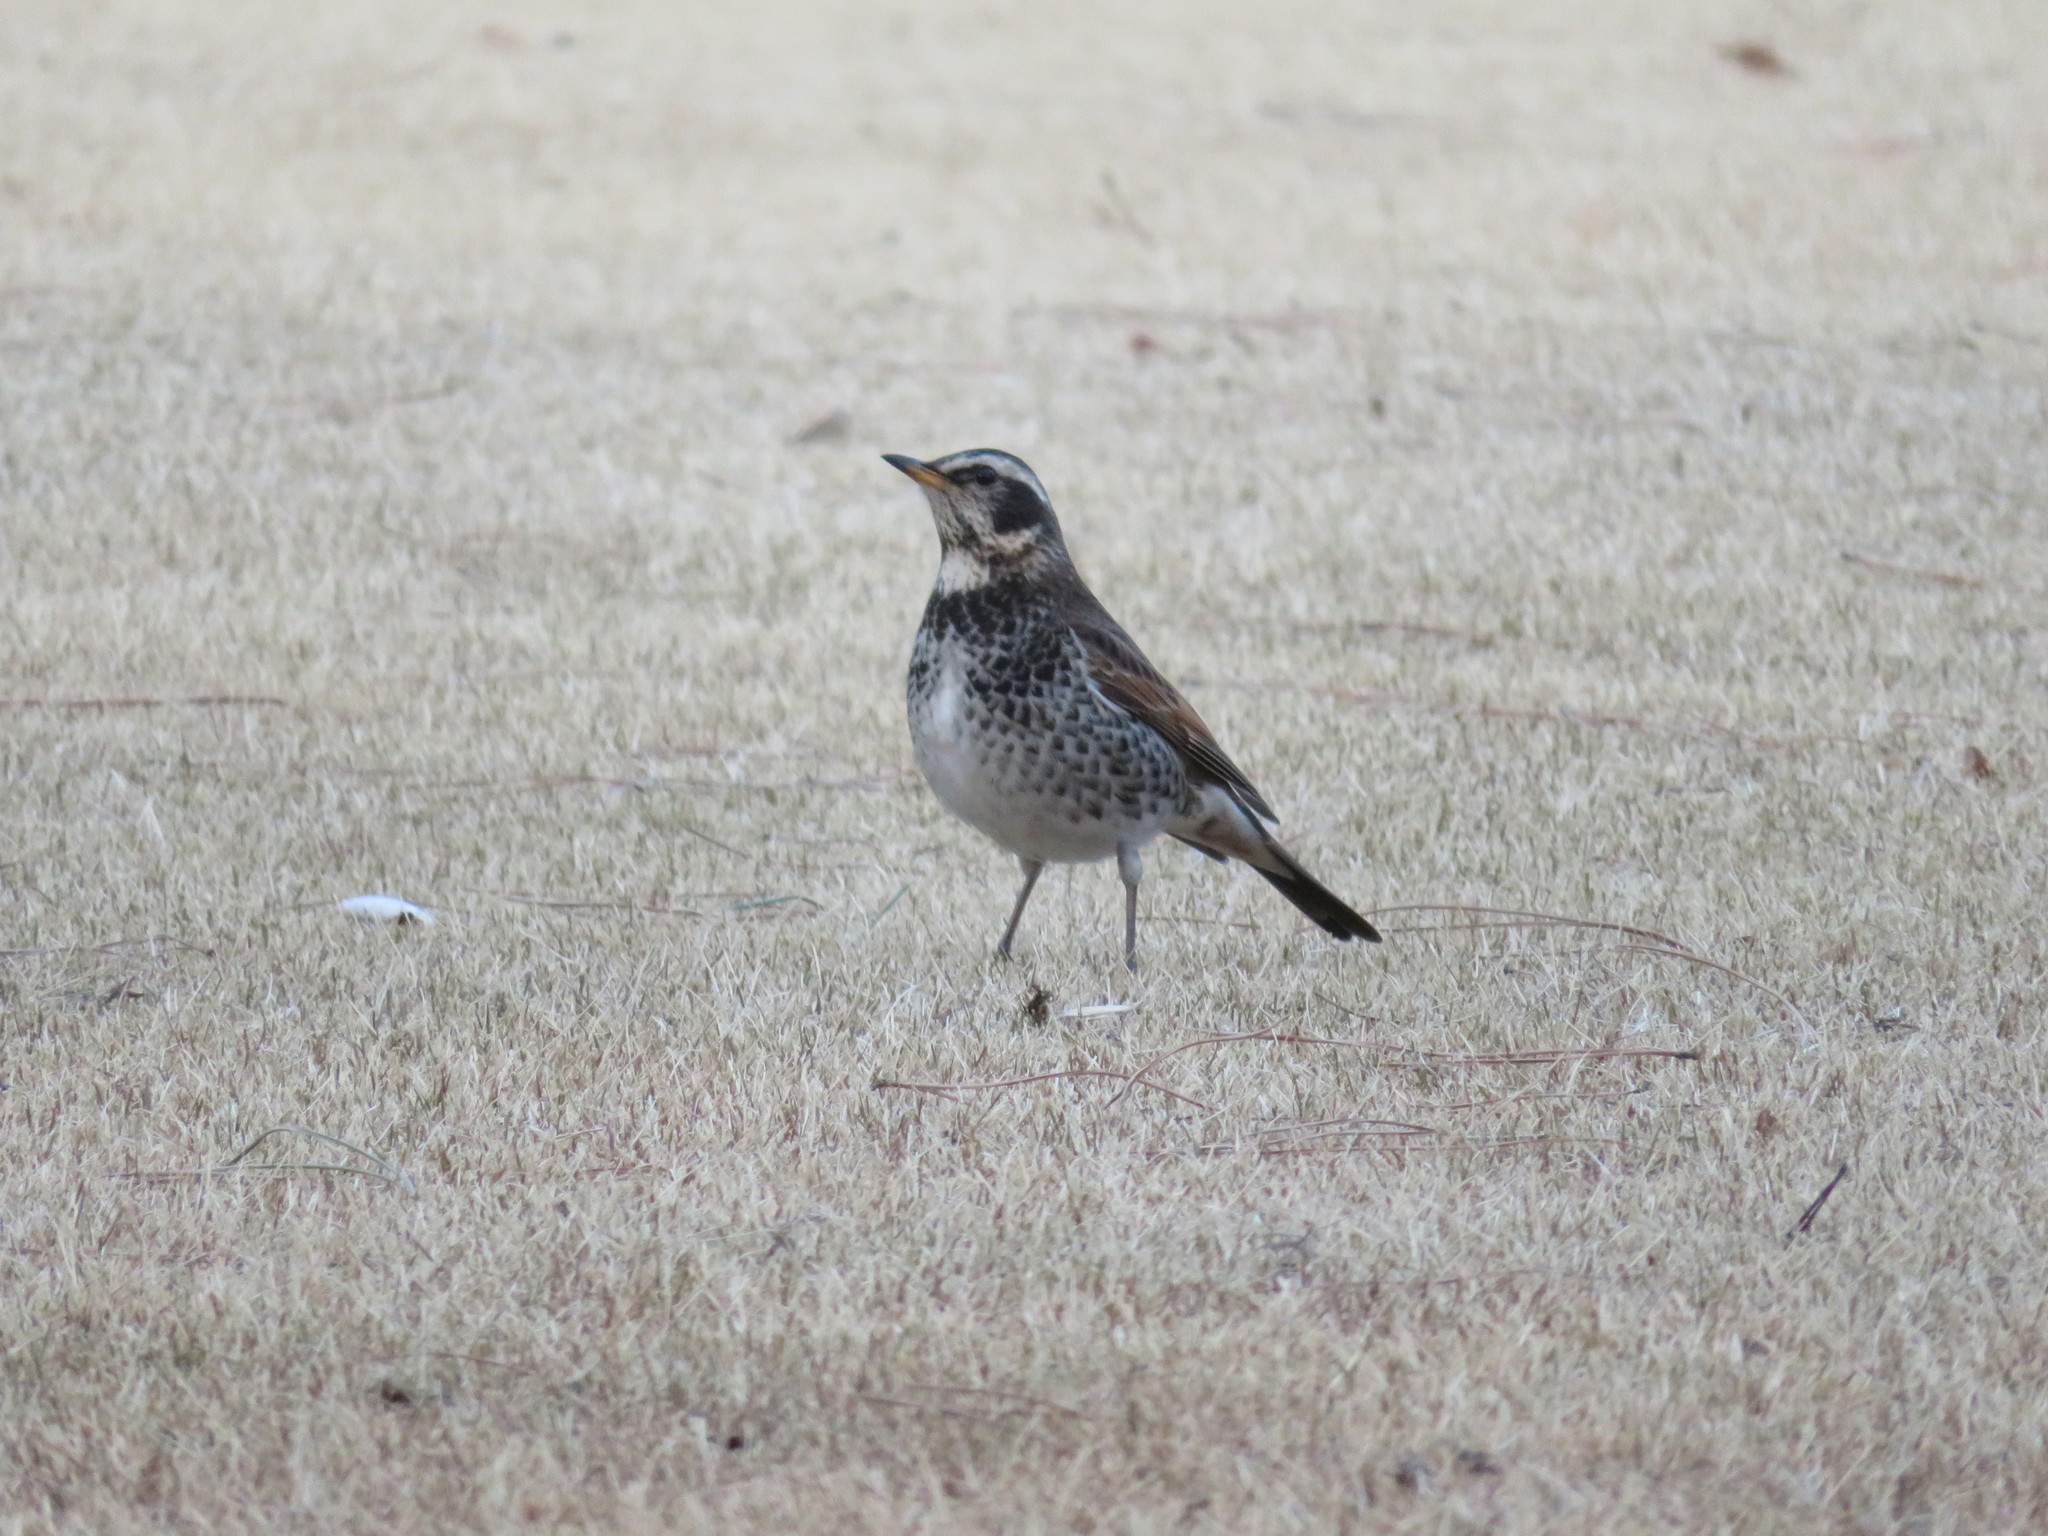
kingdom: Animalia
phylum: Chordata
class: Aves
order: Passeriformes
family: Turdidae
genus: Turdus
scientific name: Turdus eunomus
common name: Dusky thrush
